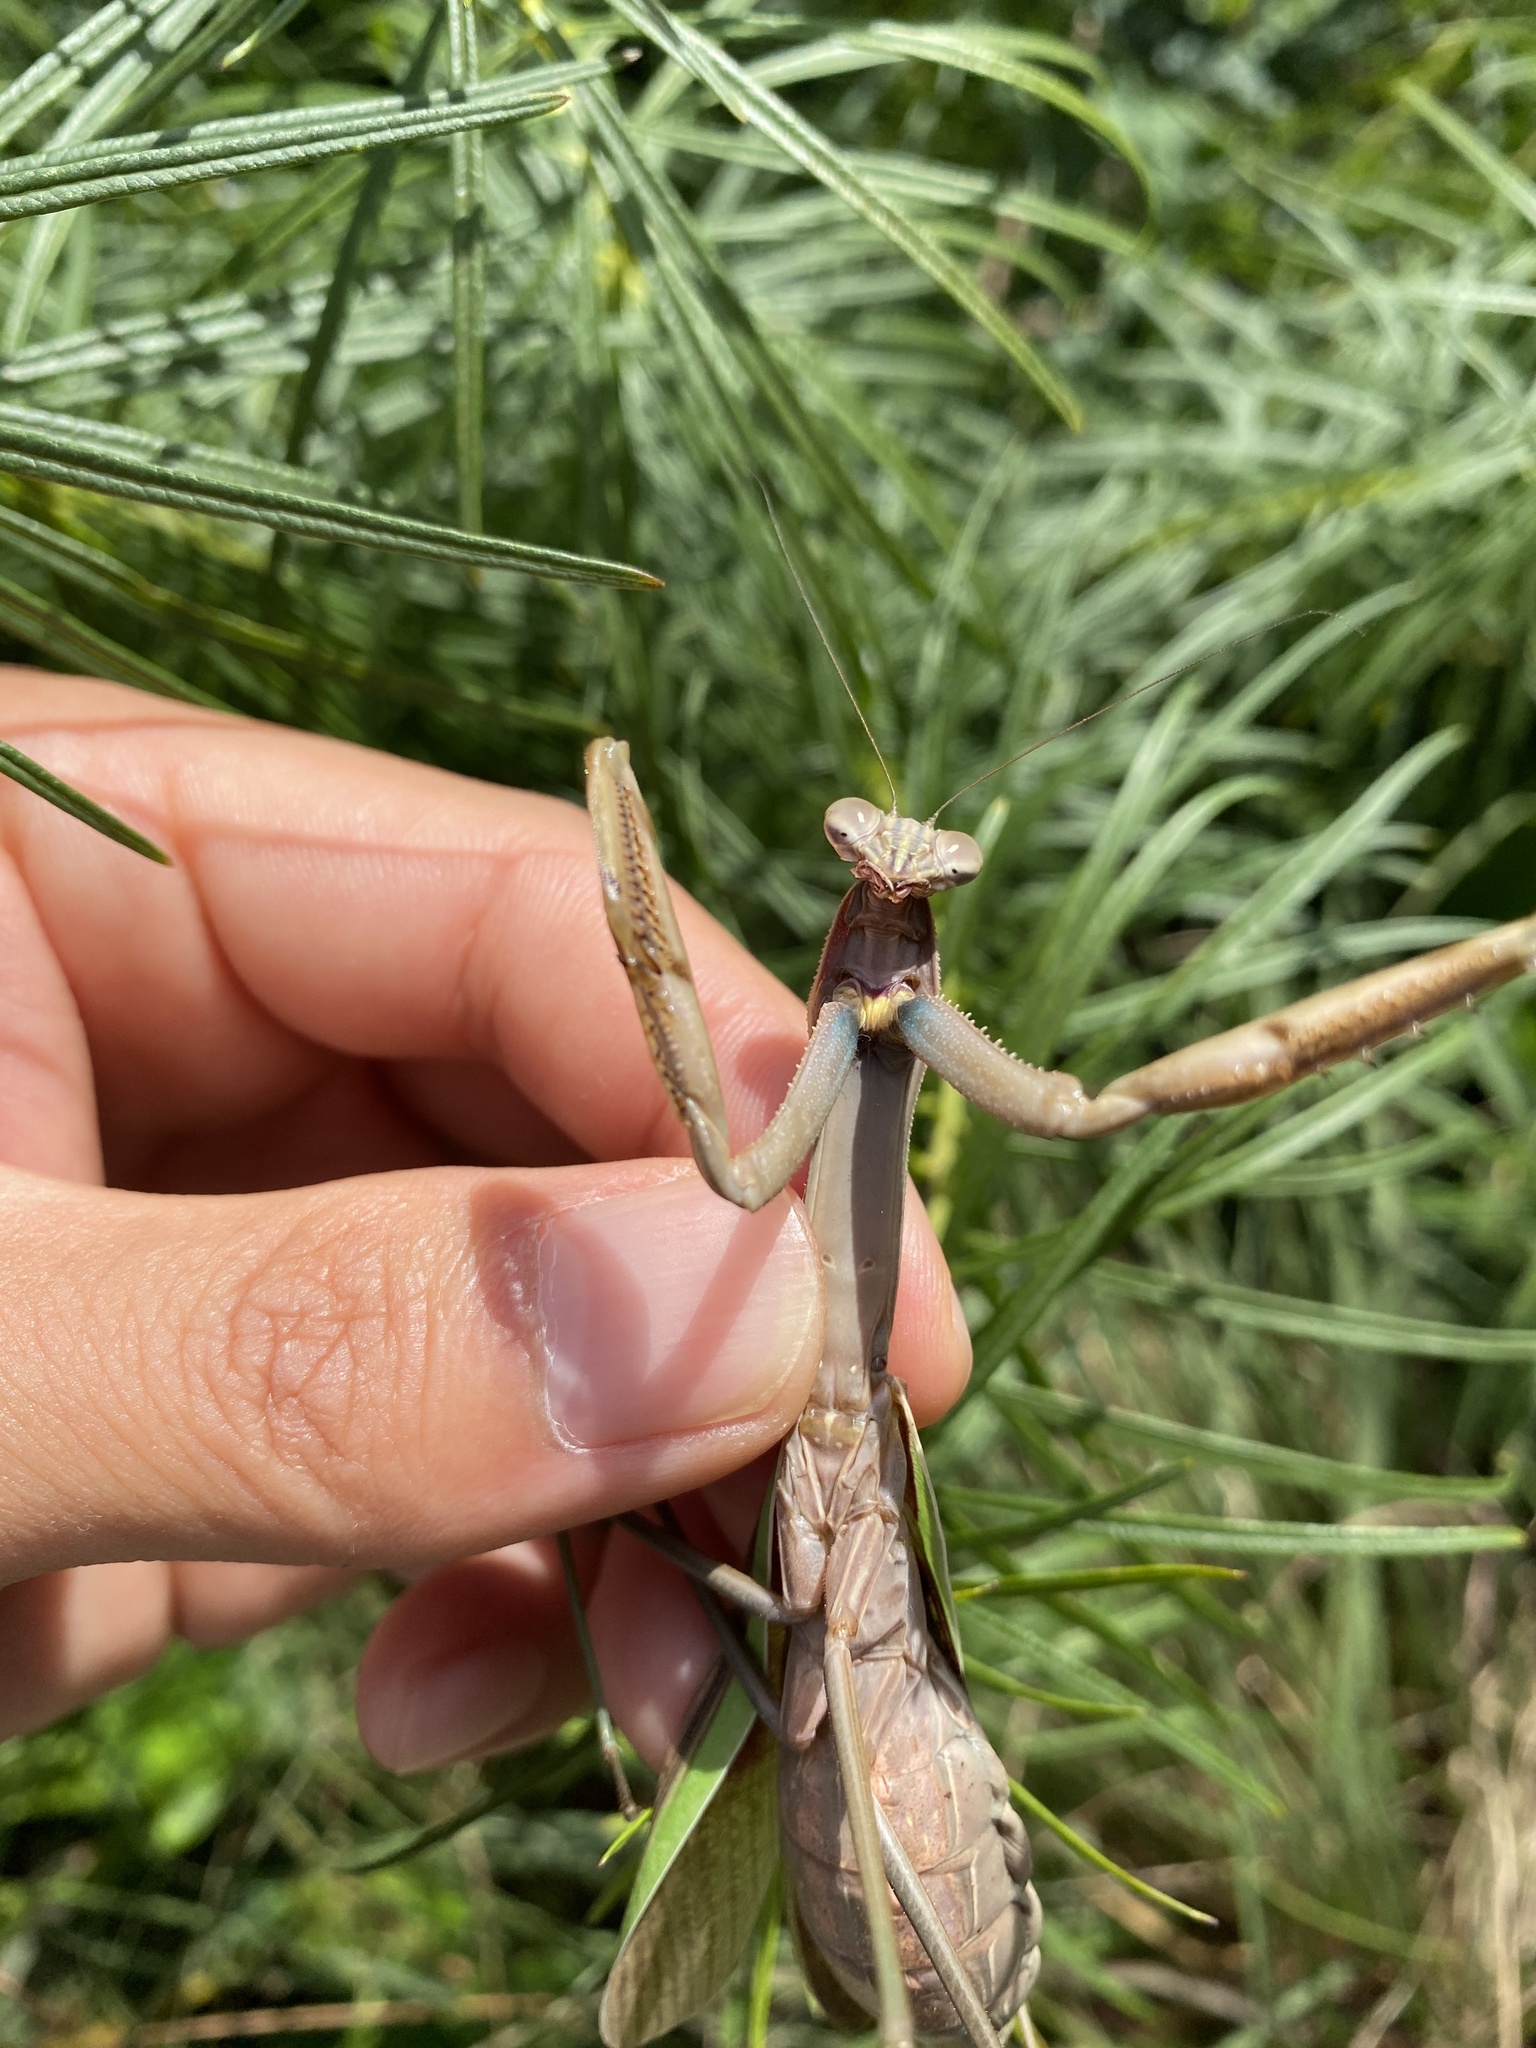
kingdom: Animalia
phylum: Arthropoda
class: Insecta
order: Mantodea
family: Mantidae
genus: Tenodera
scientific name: Tenodera sinensis
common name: Chinese mantis
